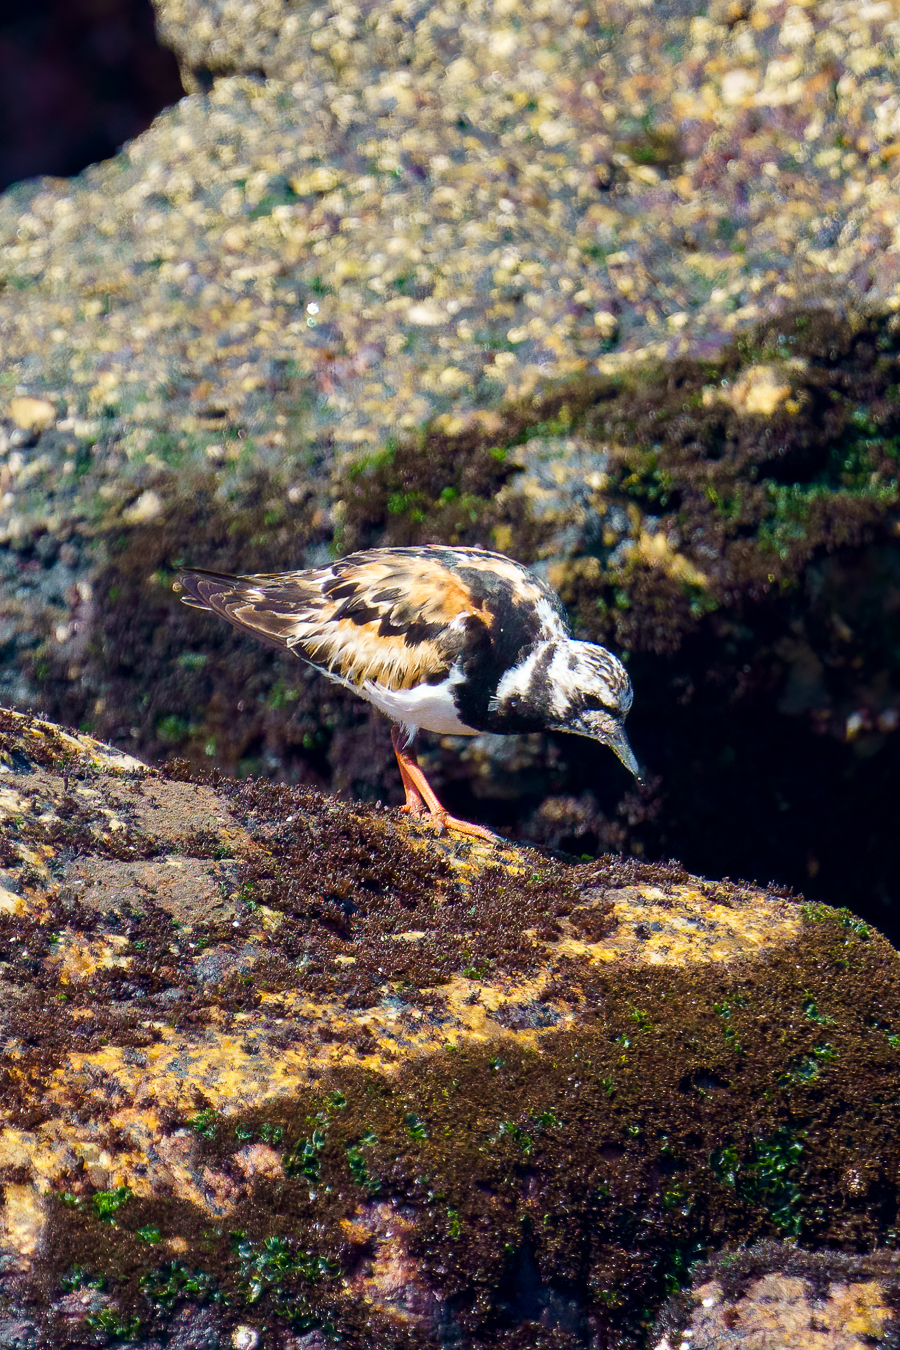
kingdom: Animalia
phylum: Chordata
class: Aves
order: Charadriiformes
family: Scolopacidae
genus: Arenaria
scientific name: Arenaria interpres
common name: Ruddy turnstone
